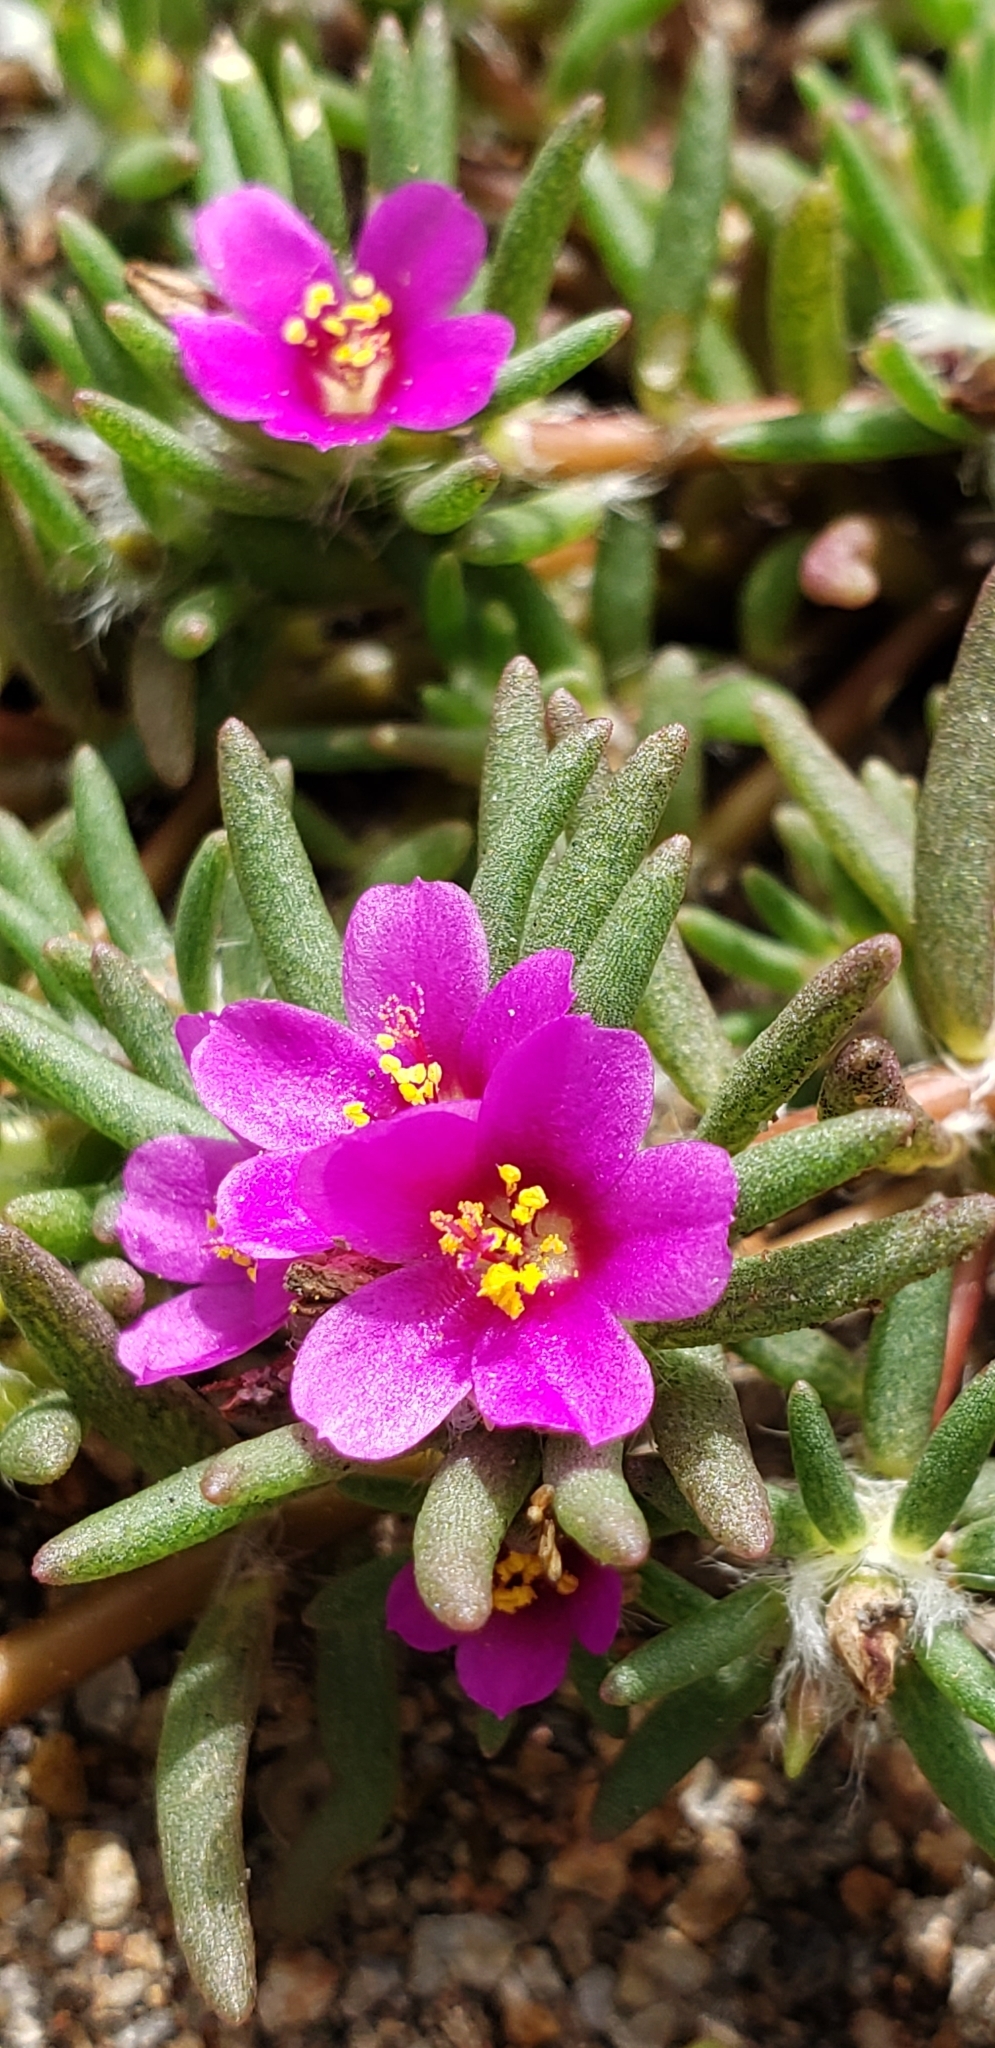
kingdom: Plantae
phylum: Tracheophyta
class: Magnoliopsida
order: Caryophyllales
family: Portulacaceae
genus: Portulaca
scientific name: Portulaca pilosa
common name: Kiss me quick
